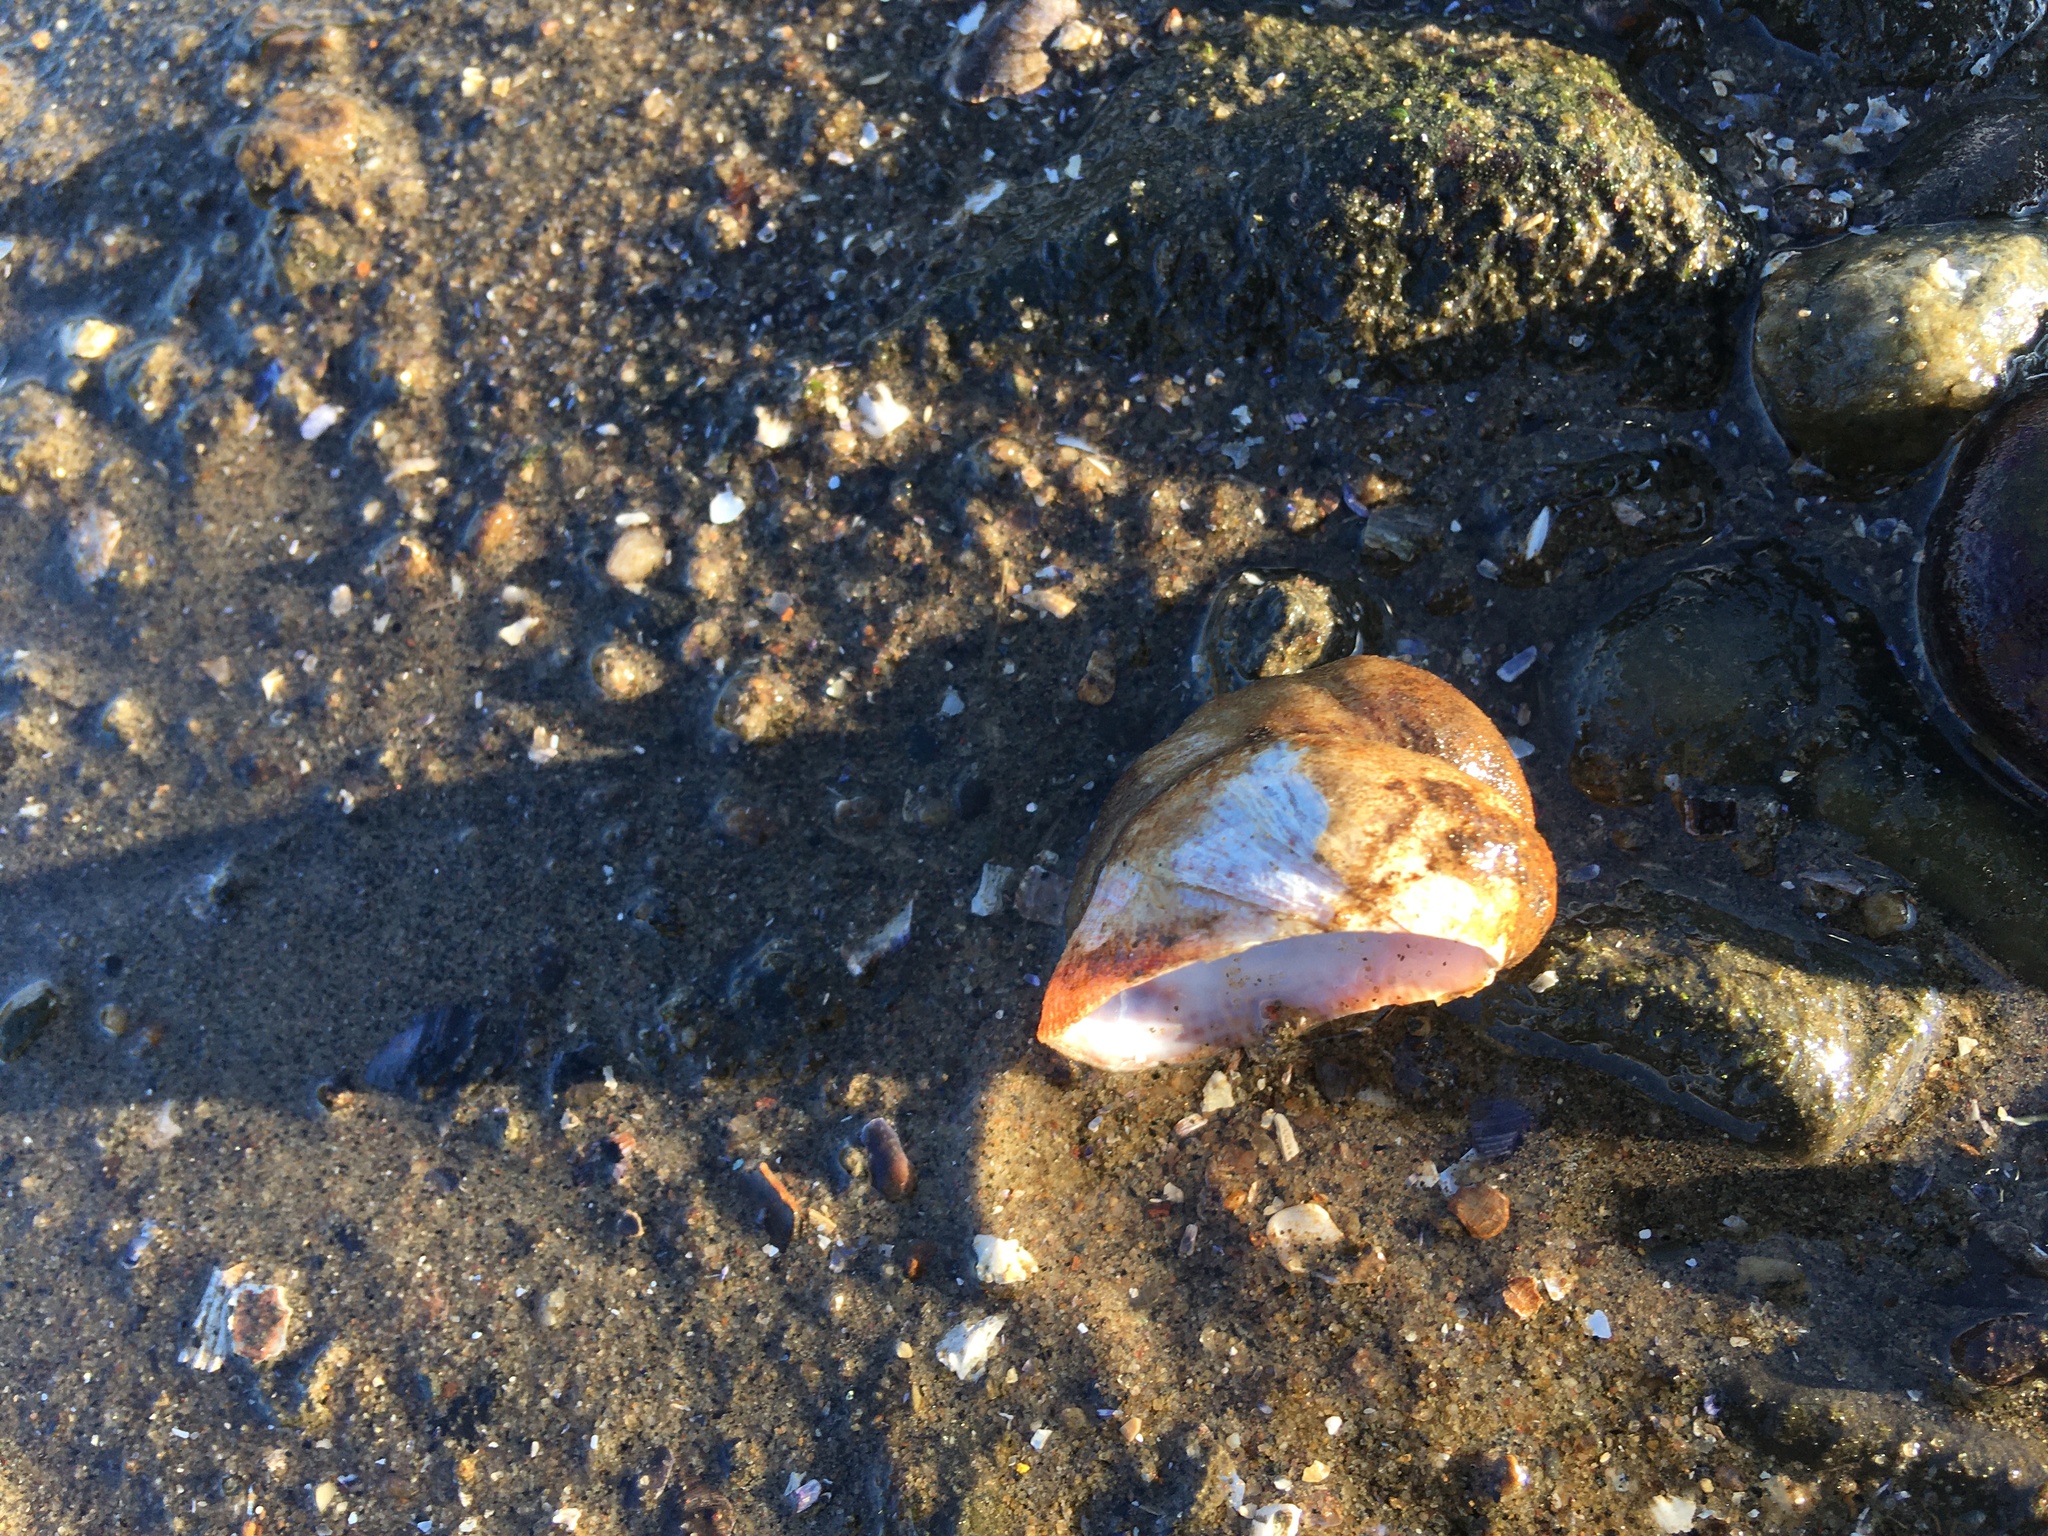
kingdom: Animalia
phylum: Mollusca
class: Gastropoda
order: Littorinimorpha
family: Calyptraeidae
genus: Crepidula
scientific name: Crepidula fornicata
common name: Slipper limpet
